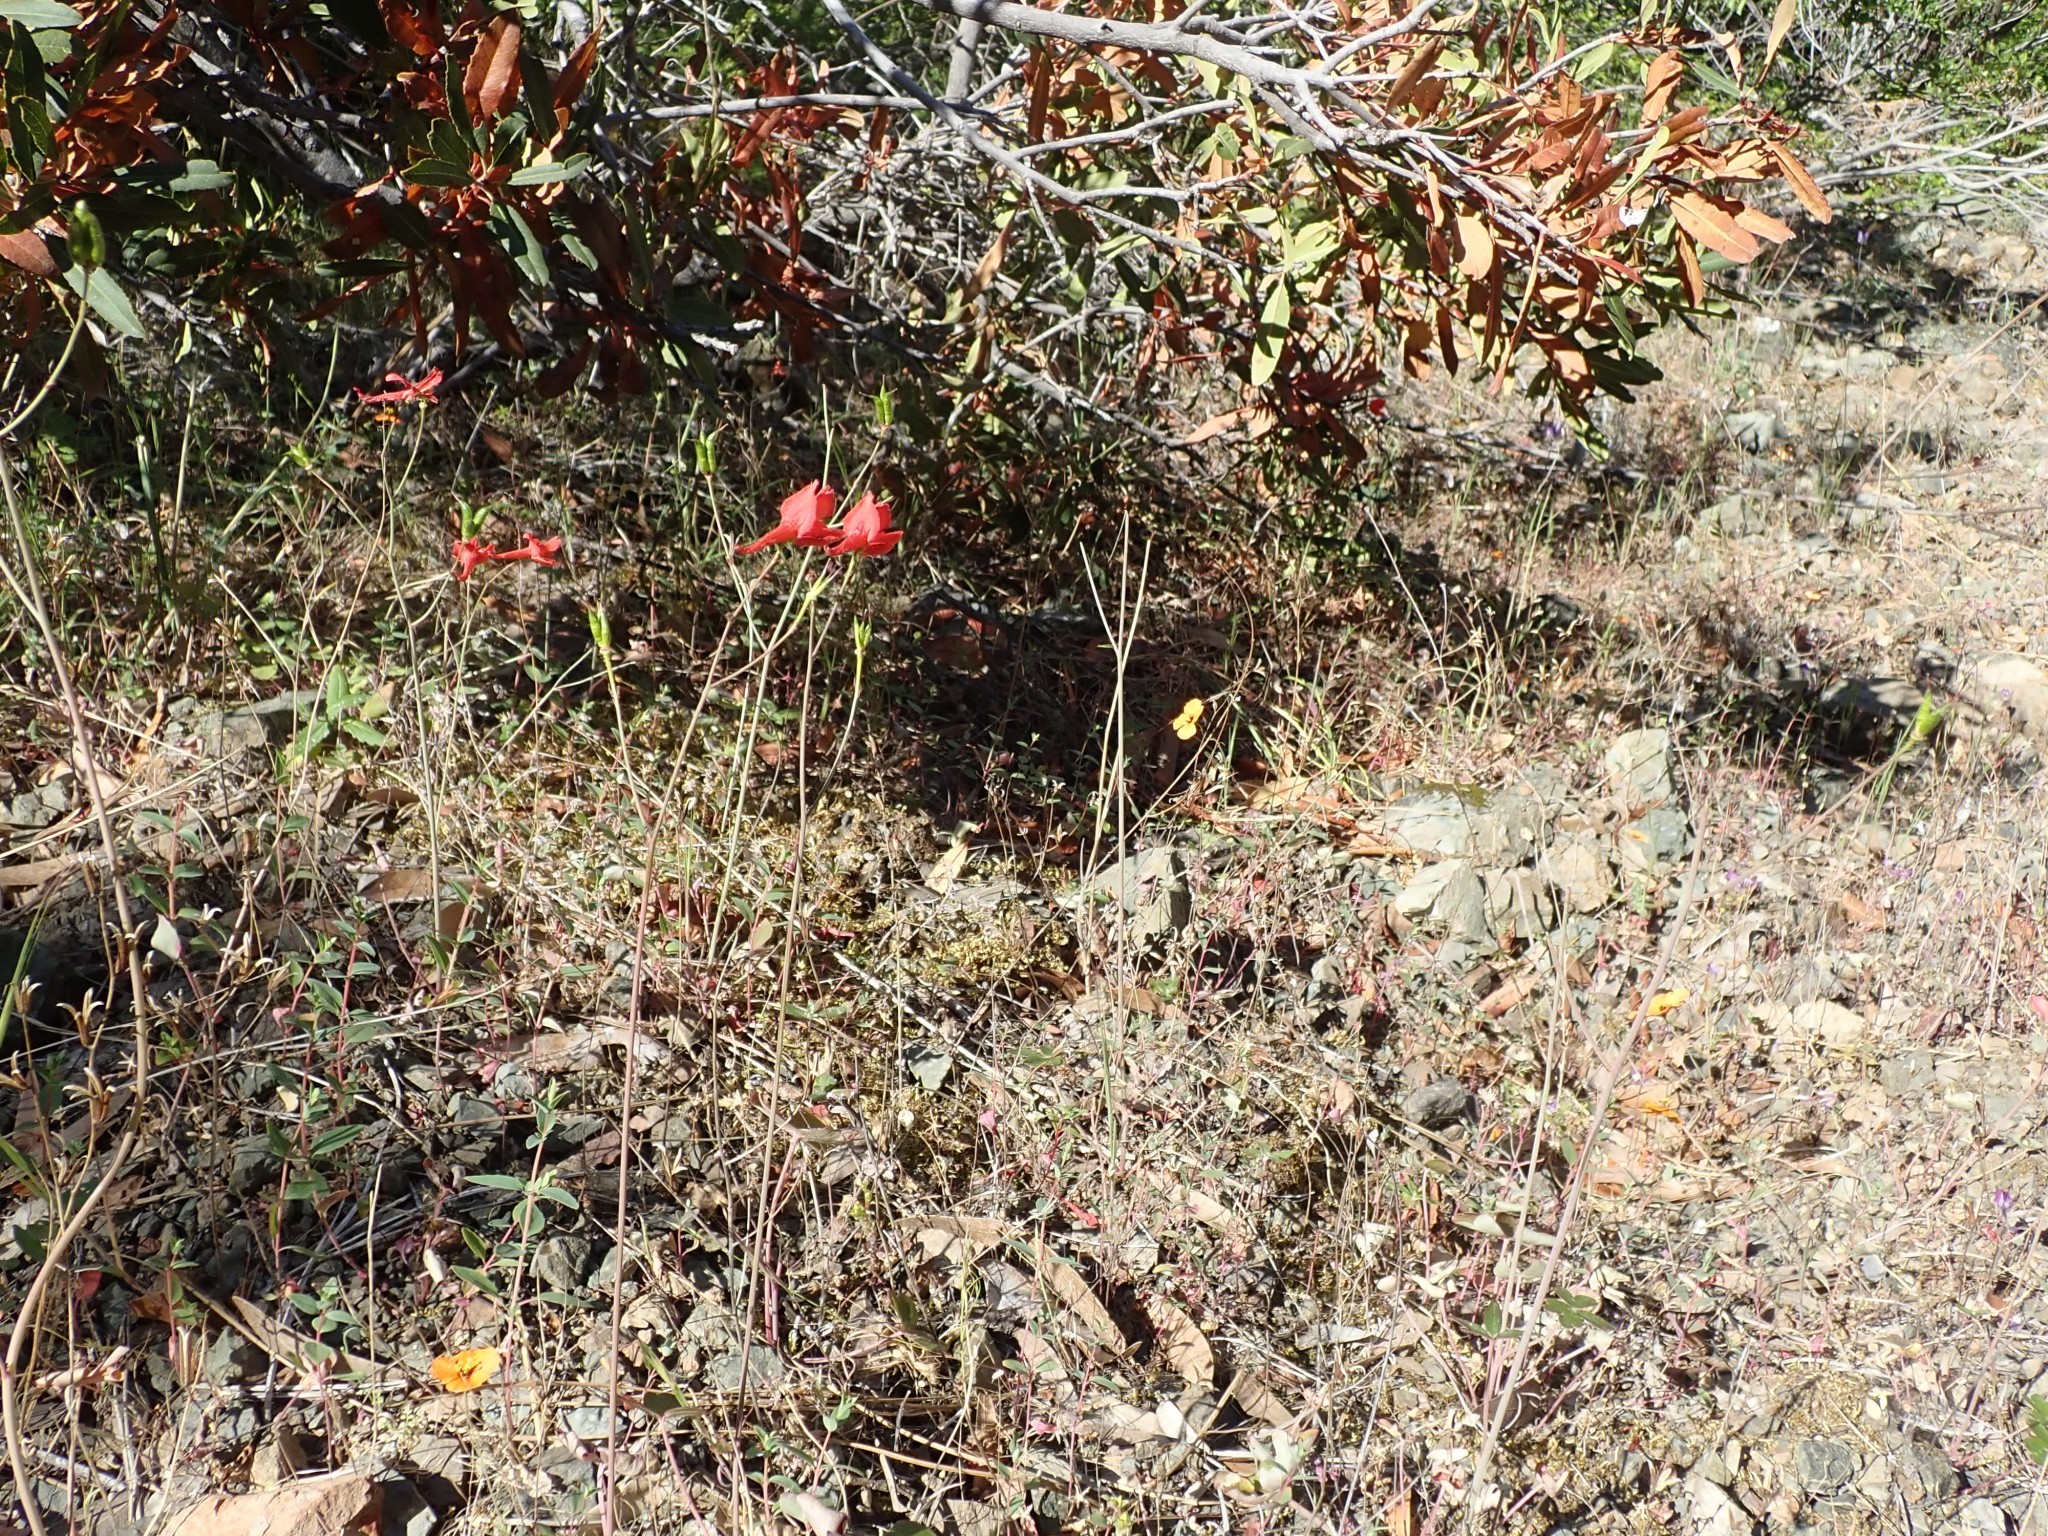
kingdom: Plantae
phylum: Tracheophyta
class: Magnoliopsida
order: Ranunculales
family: Ranunculaceae
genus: Delphinium
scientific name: Delphinium nudicaule
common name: Red larkspur
